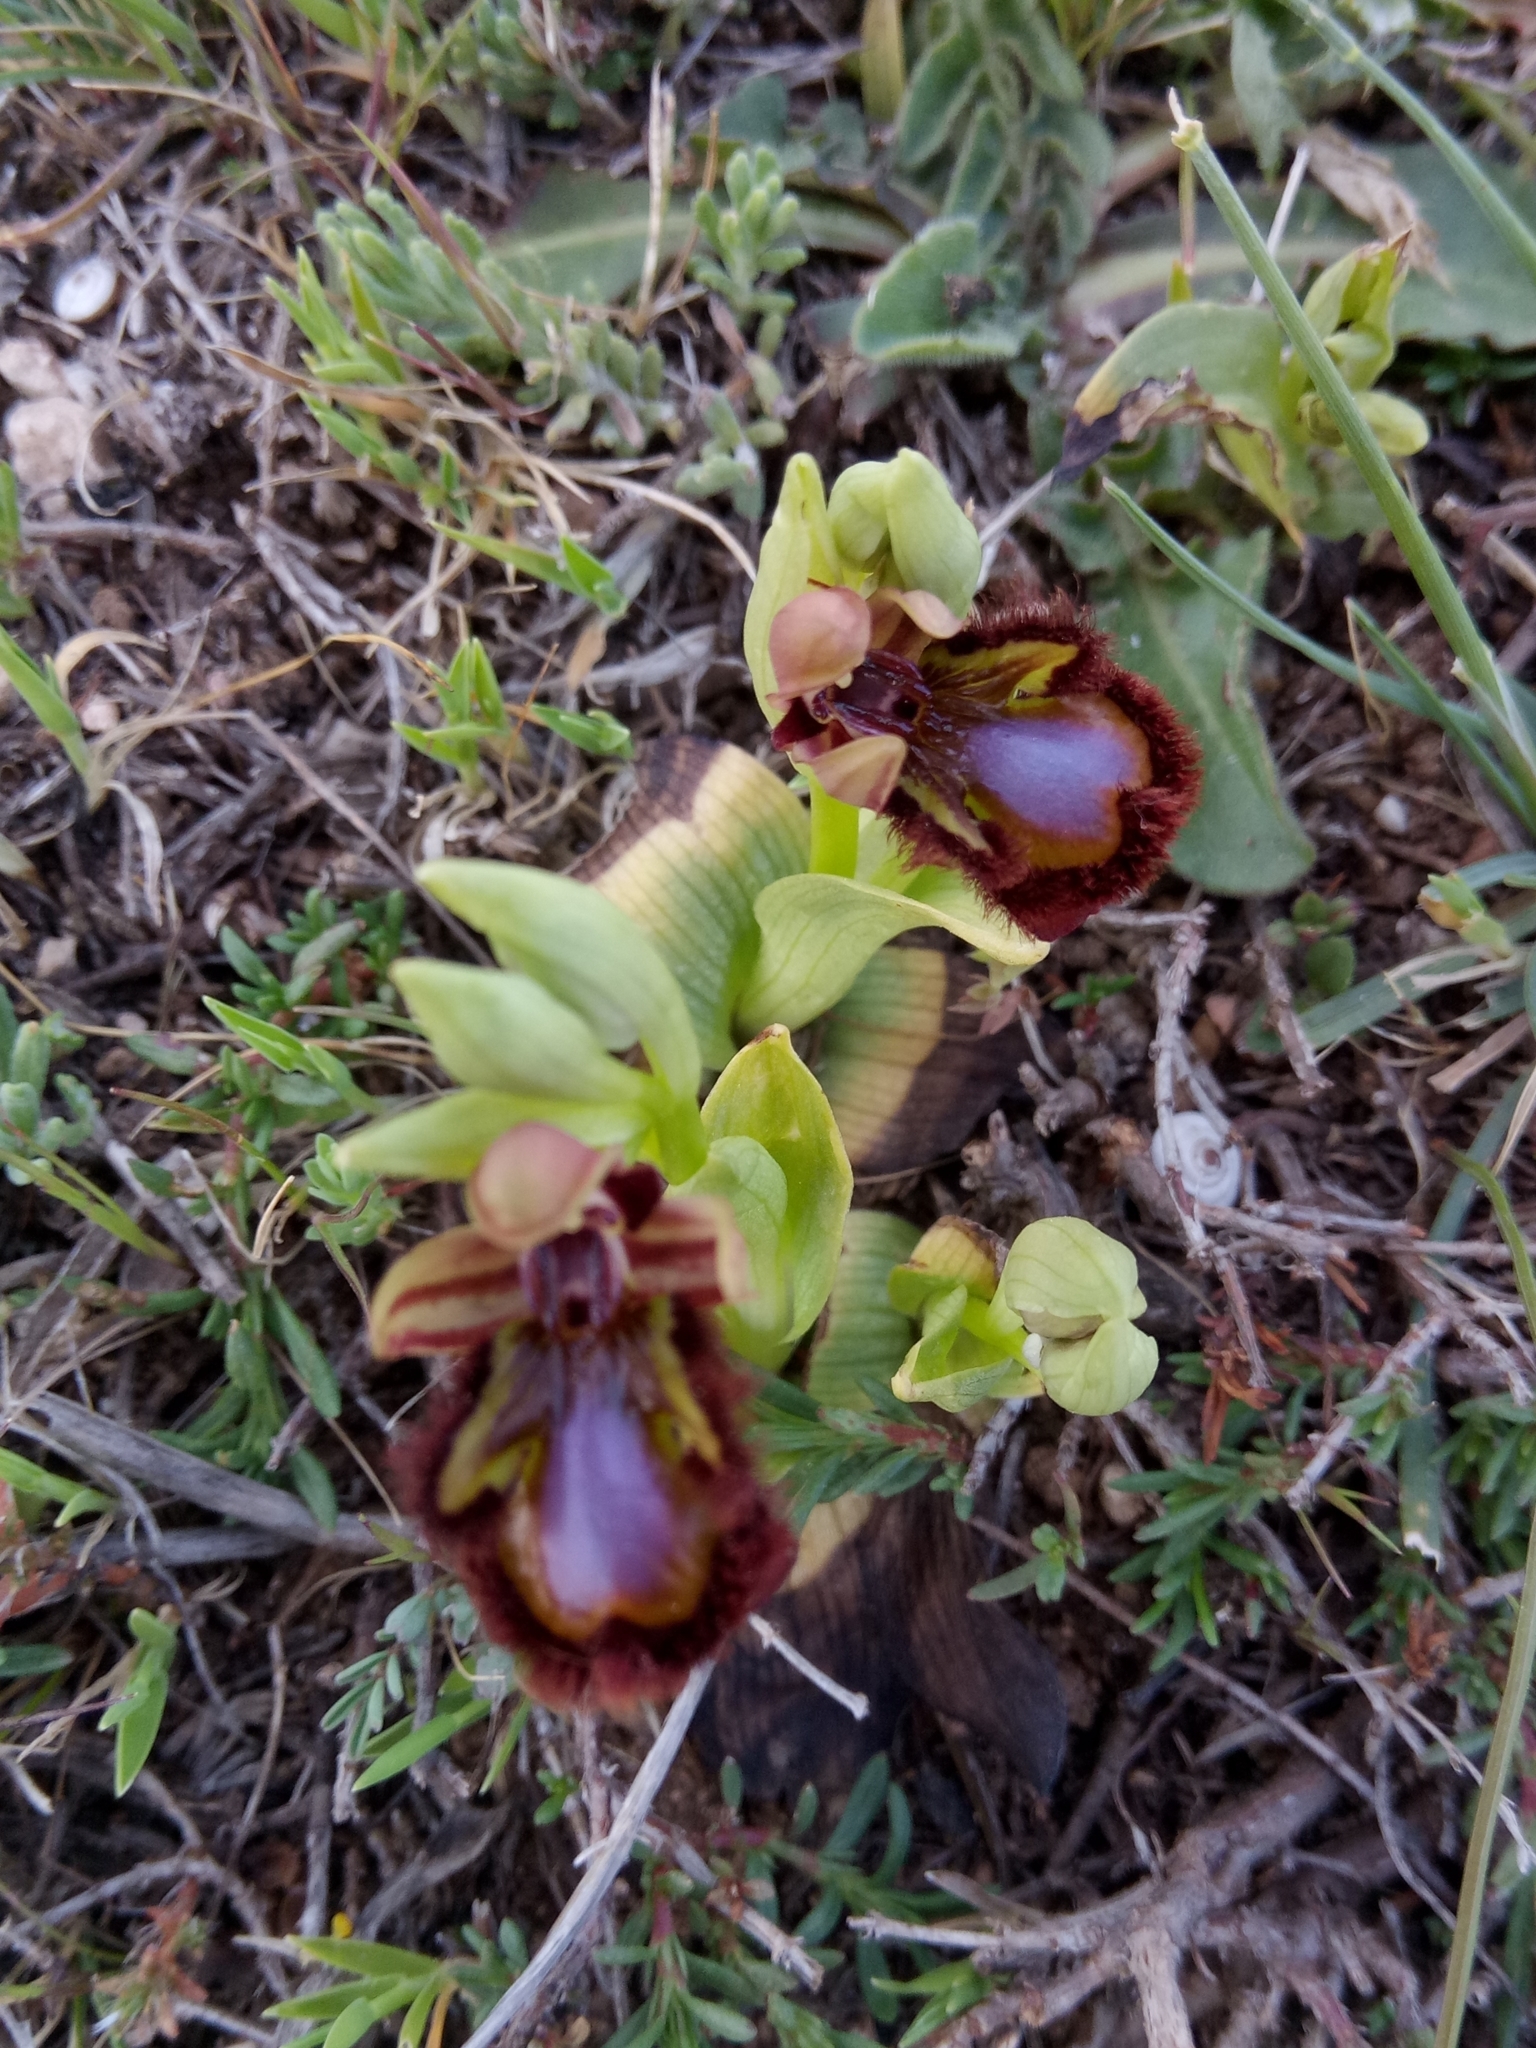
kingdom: Plantae
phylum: Tracheophyta
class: Liliopsida
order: Asparagales
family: Orchidaceae
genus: Ophrys
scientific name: Ophrys speculum
